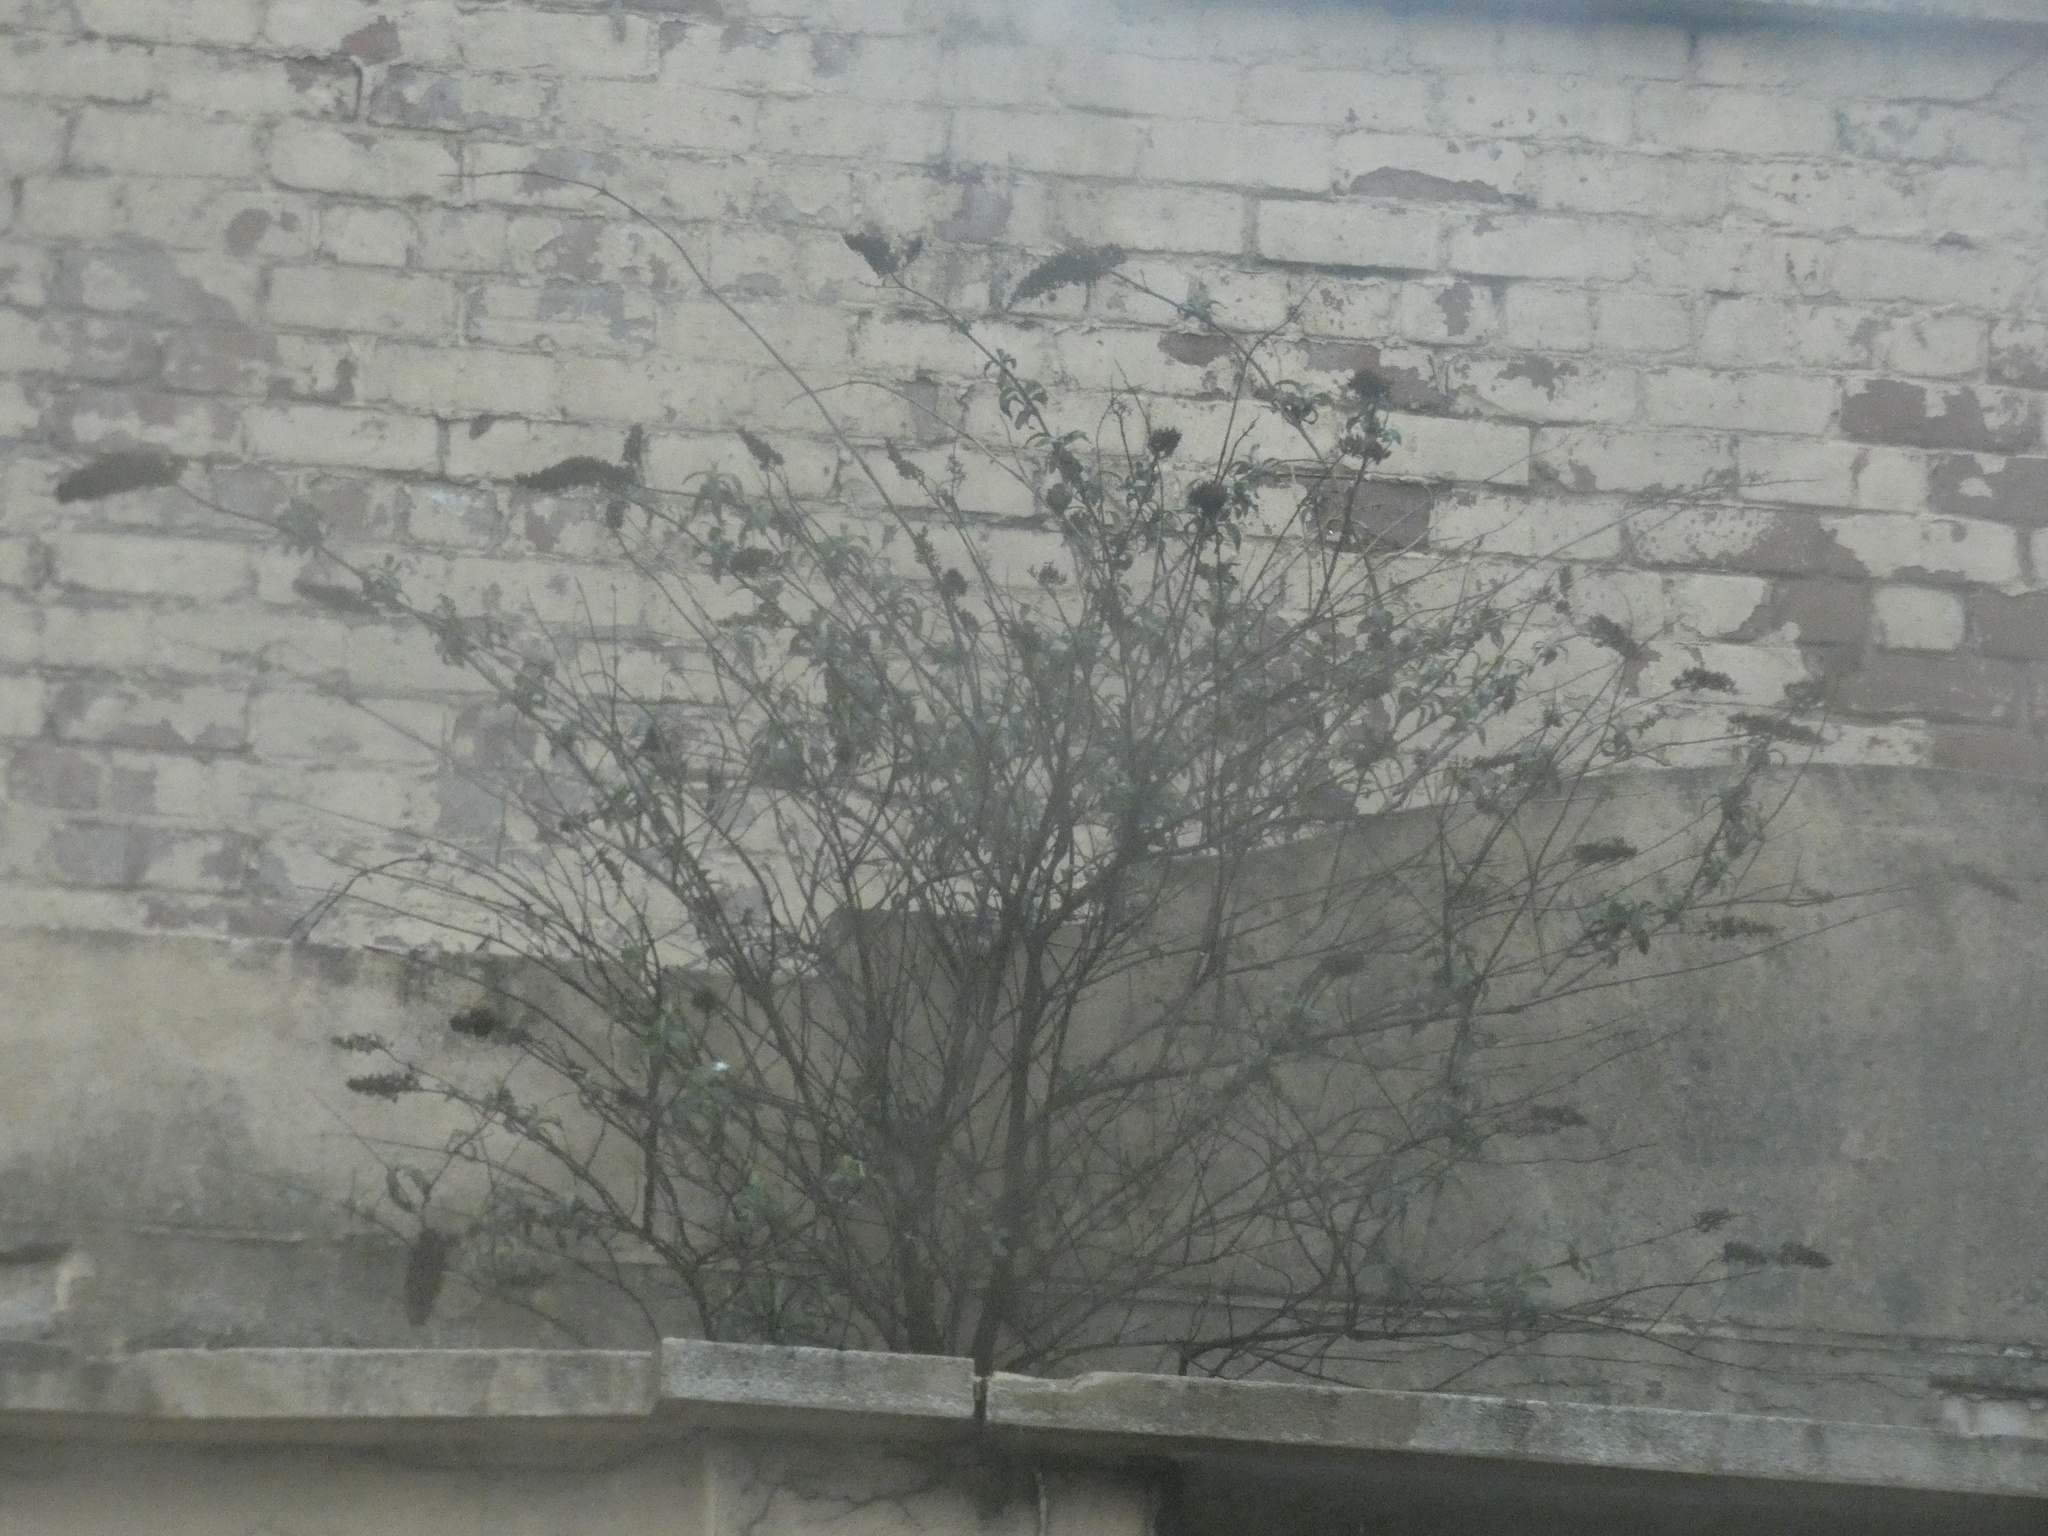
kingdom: Plantae
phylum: Tracheophyta
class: Magnoliopsida
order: Lamiales
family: Scrophulariaceae
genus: Buddleja
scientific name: Buddleja davidii
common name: Butterfly-bush
